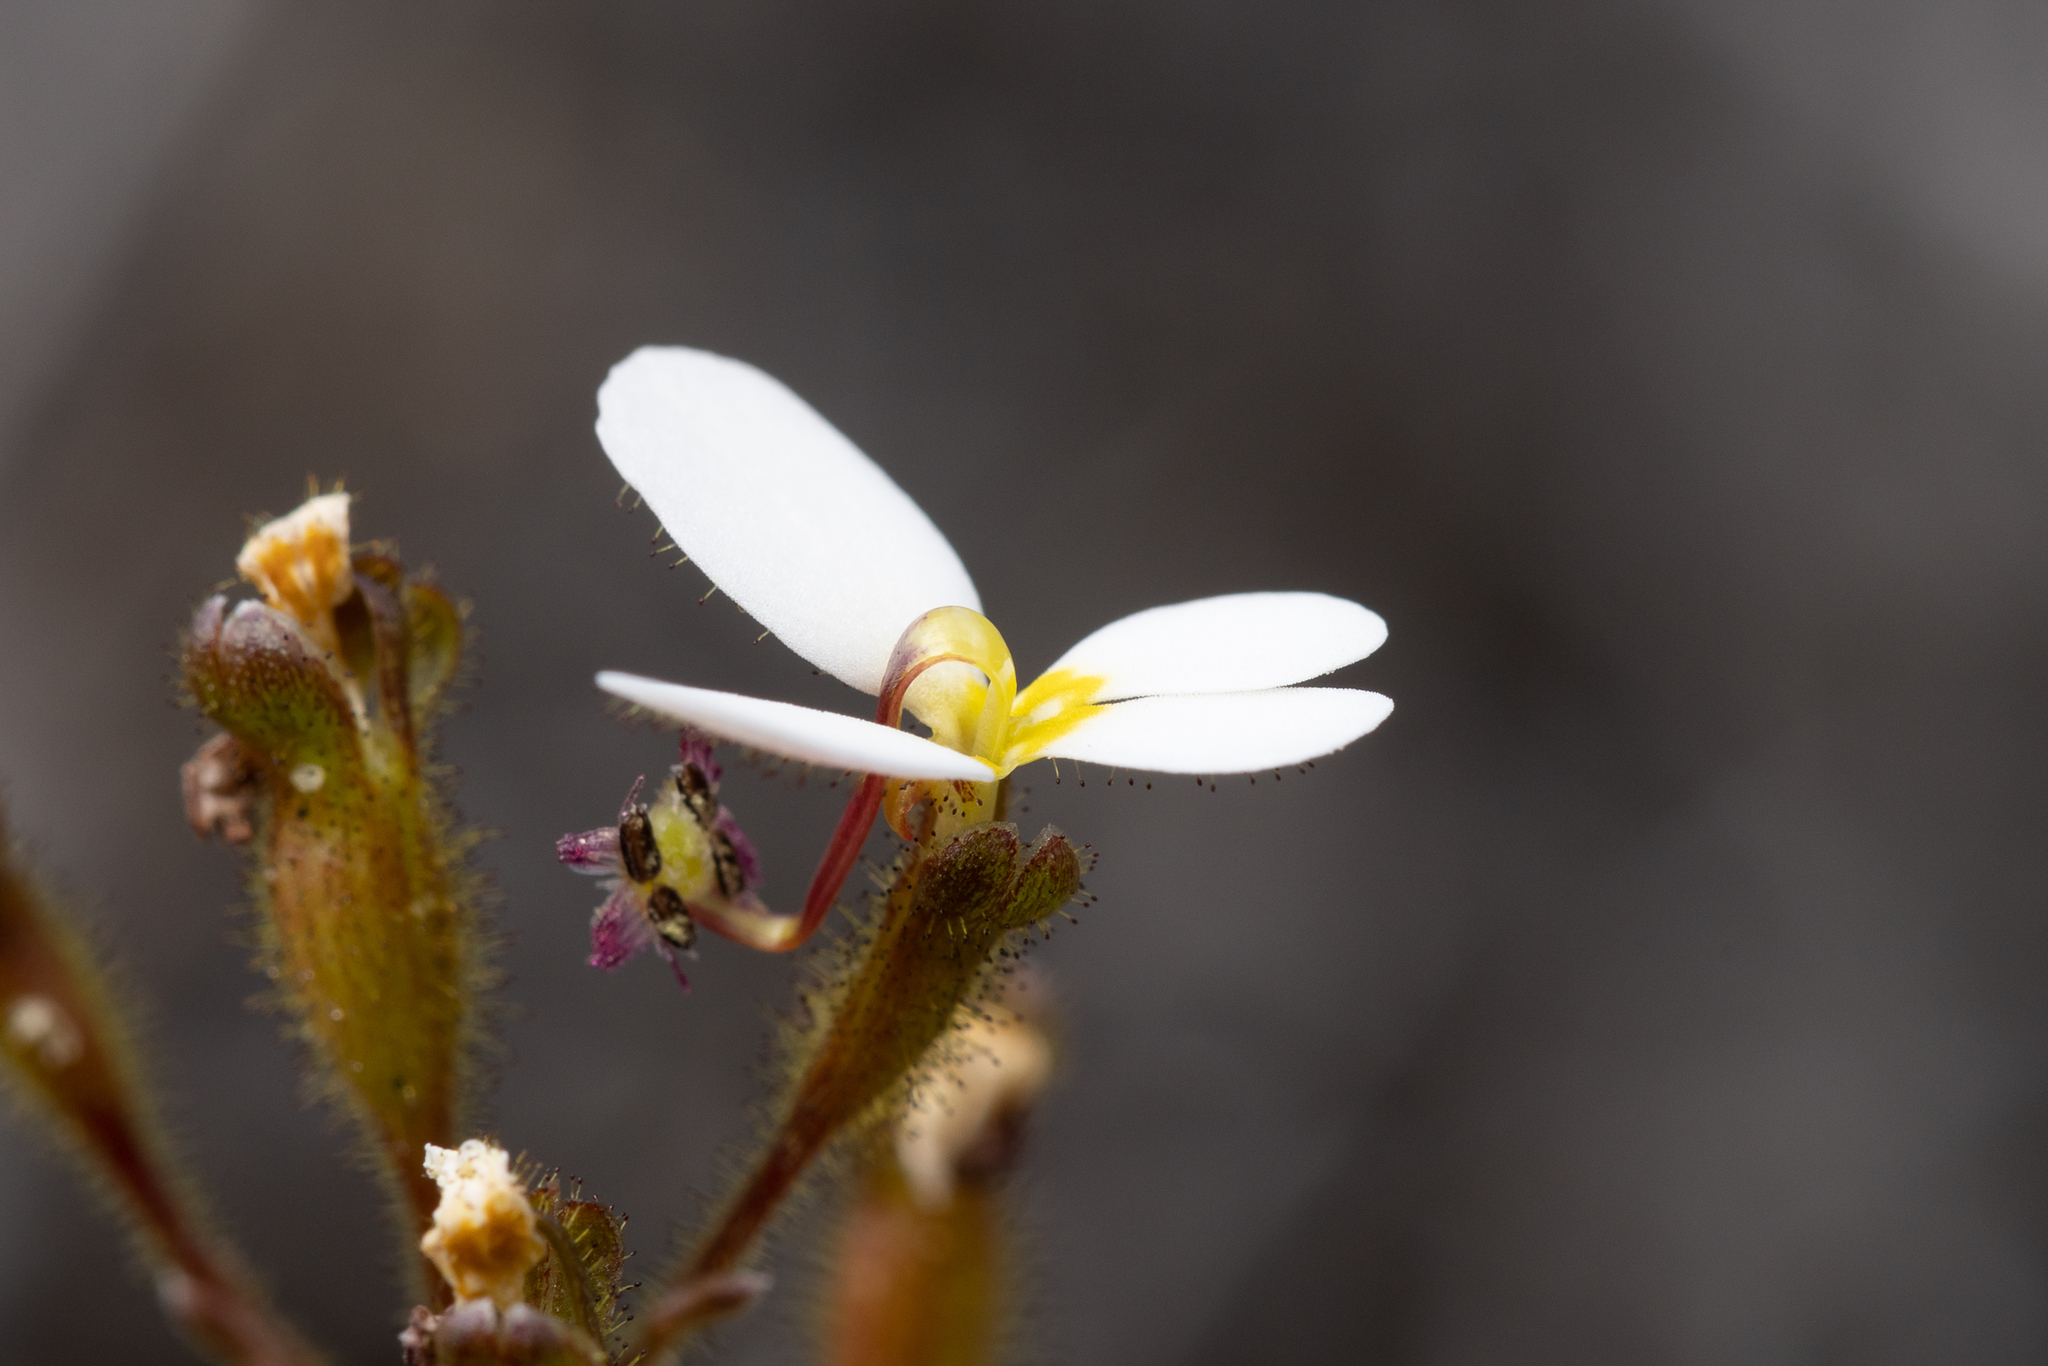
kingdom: Plantae
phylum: Tracheophyta
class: Magnoliopsida
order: Asterales
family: Stylidiaceae
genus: Stylidium
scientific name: Stylidium piliferum
